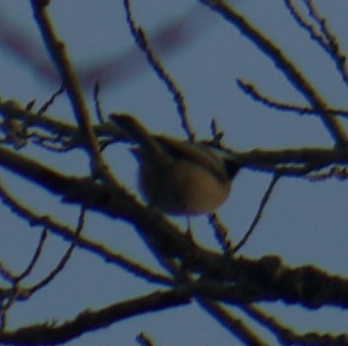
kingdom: Animalia
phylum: Chordata
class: Aves
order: Passeriformes
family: Paridae
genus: Poecile
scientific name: Poecile atricapillus
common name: Black-capped chickadee
